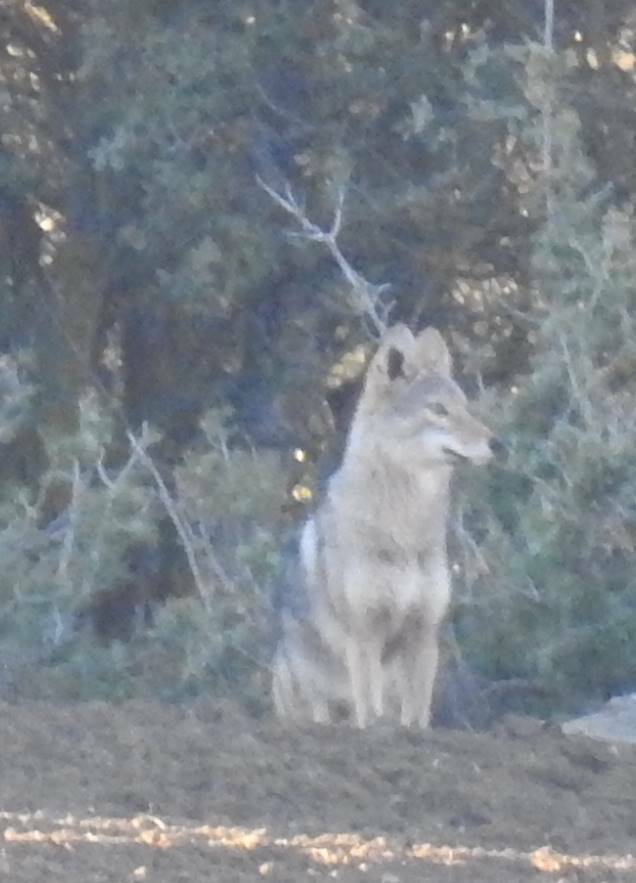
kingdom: Animalia
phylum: Chordata
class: Mammalia
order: Carnivora
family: Canidae
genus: Canis
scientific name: Canis lupaster
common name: African golden wolf
